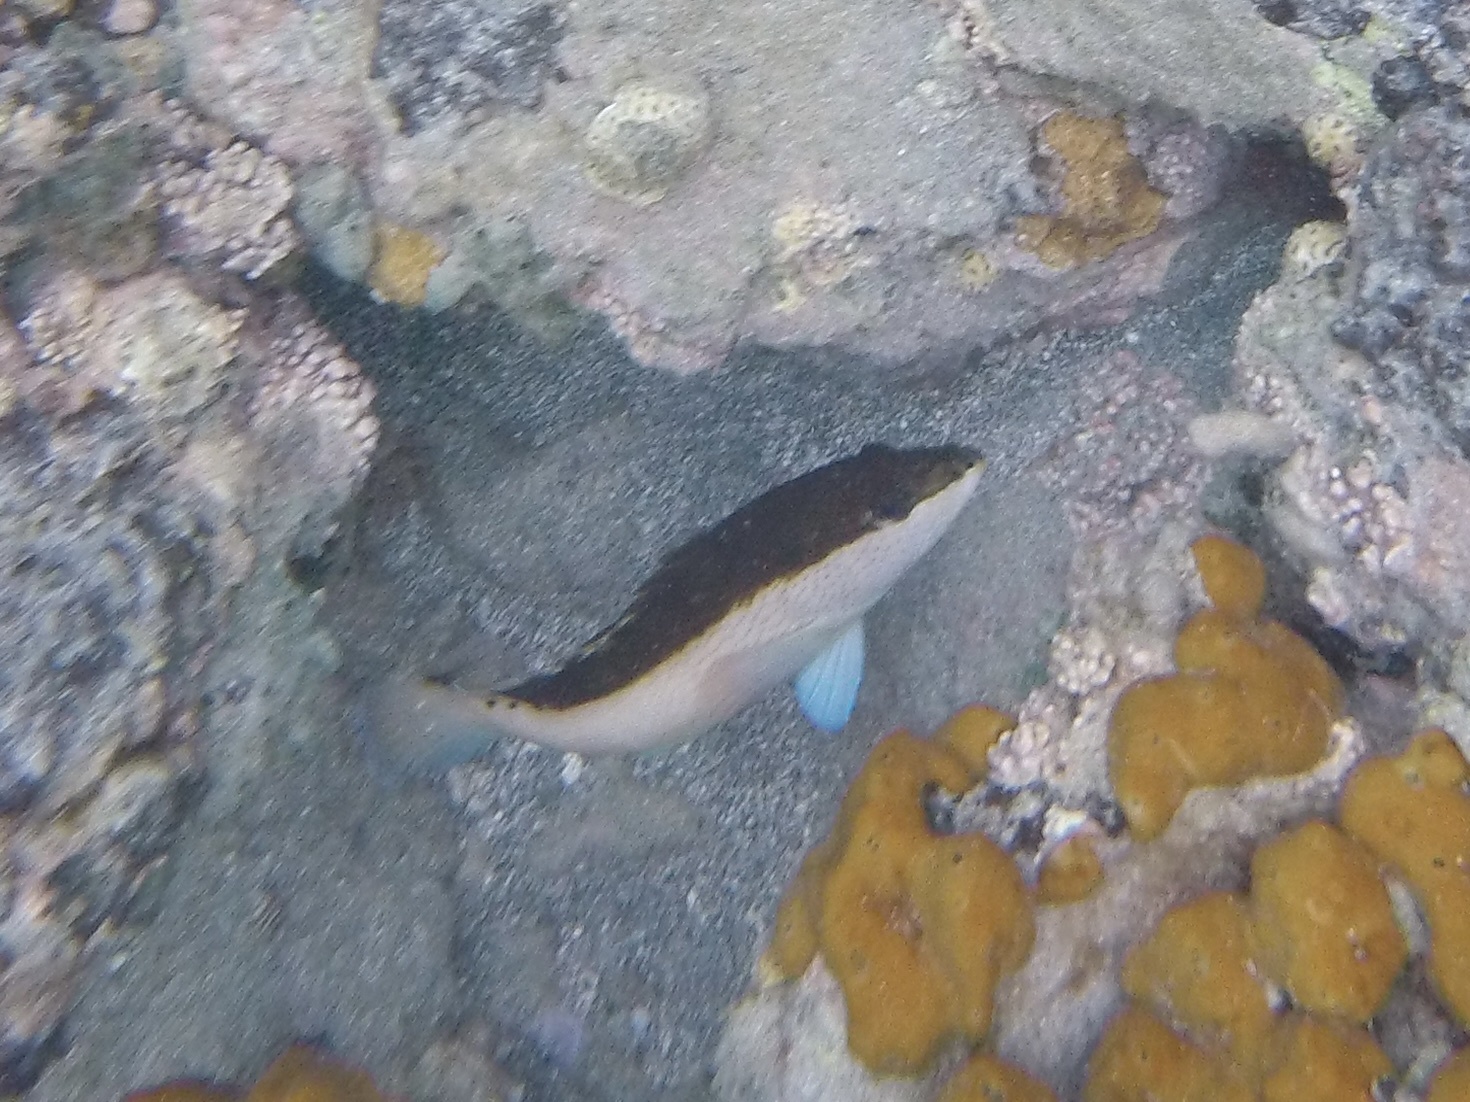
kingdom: Animalia
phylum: Chordata
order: Perciformes
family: Serranidae
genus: Cephalopholis
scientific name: Cephalopholis fulva
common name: Butterfish
